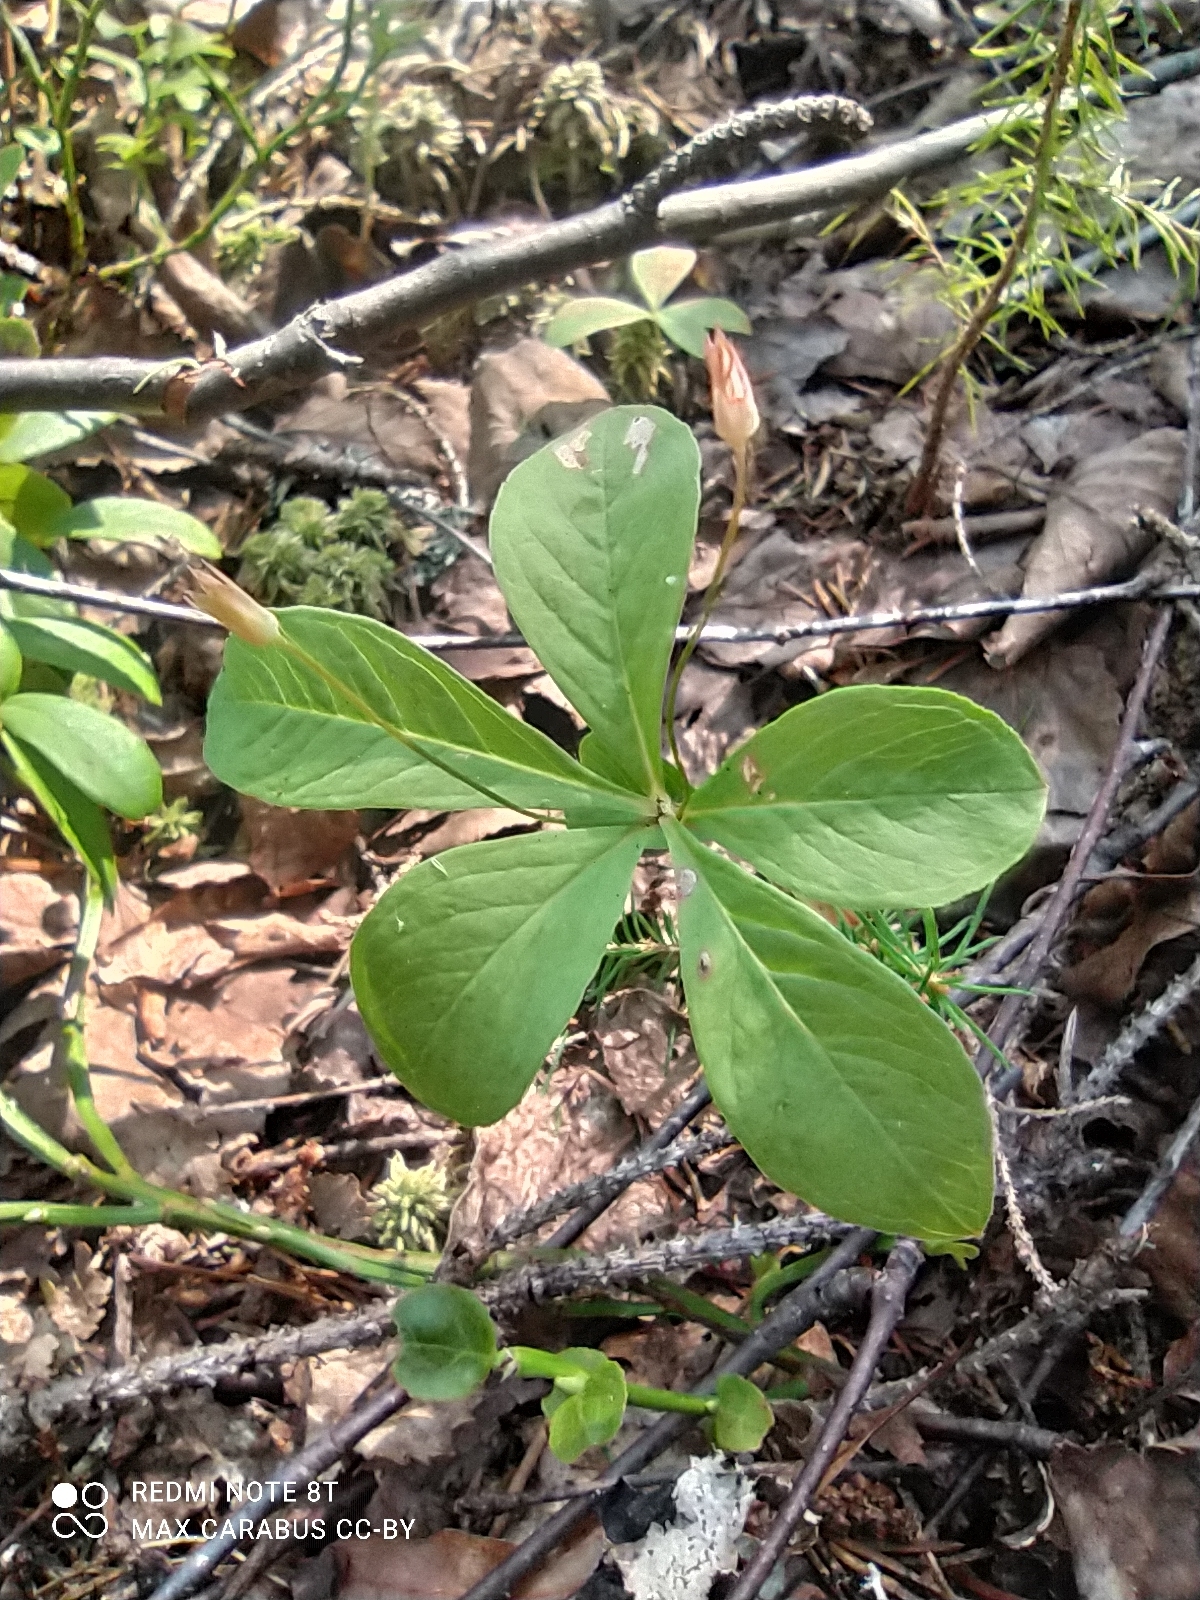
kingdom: Plantae
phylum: Tracheophyta
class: Magnoliopsida
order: Ericales
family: Primulaceae
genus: Lysimachia
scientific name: Lysimachia europaea
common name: Arctic starflower
